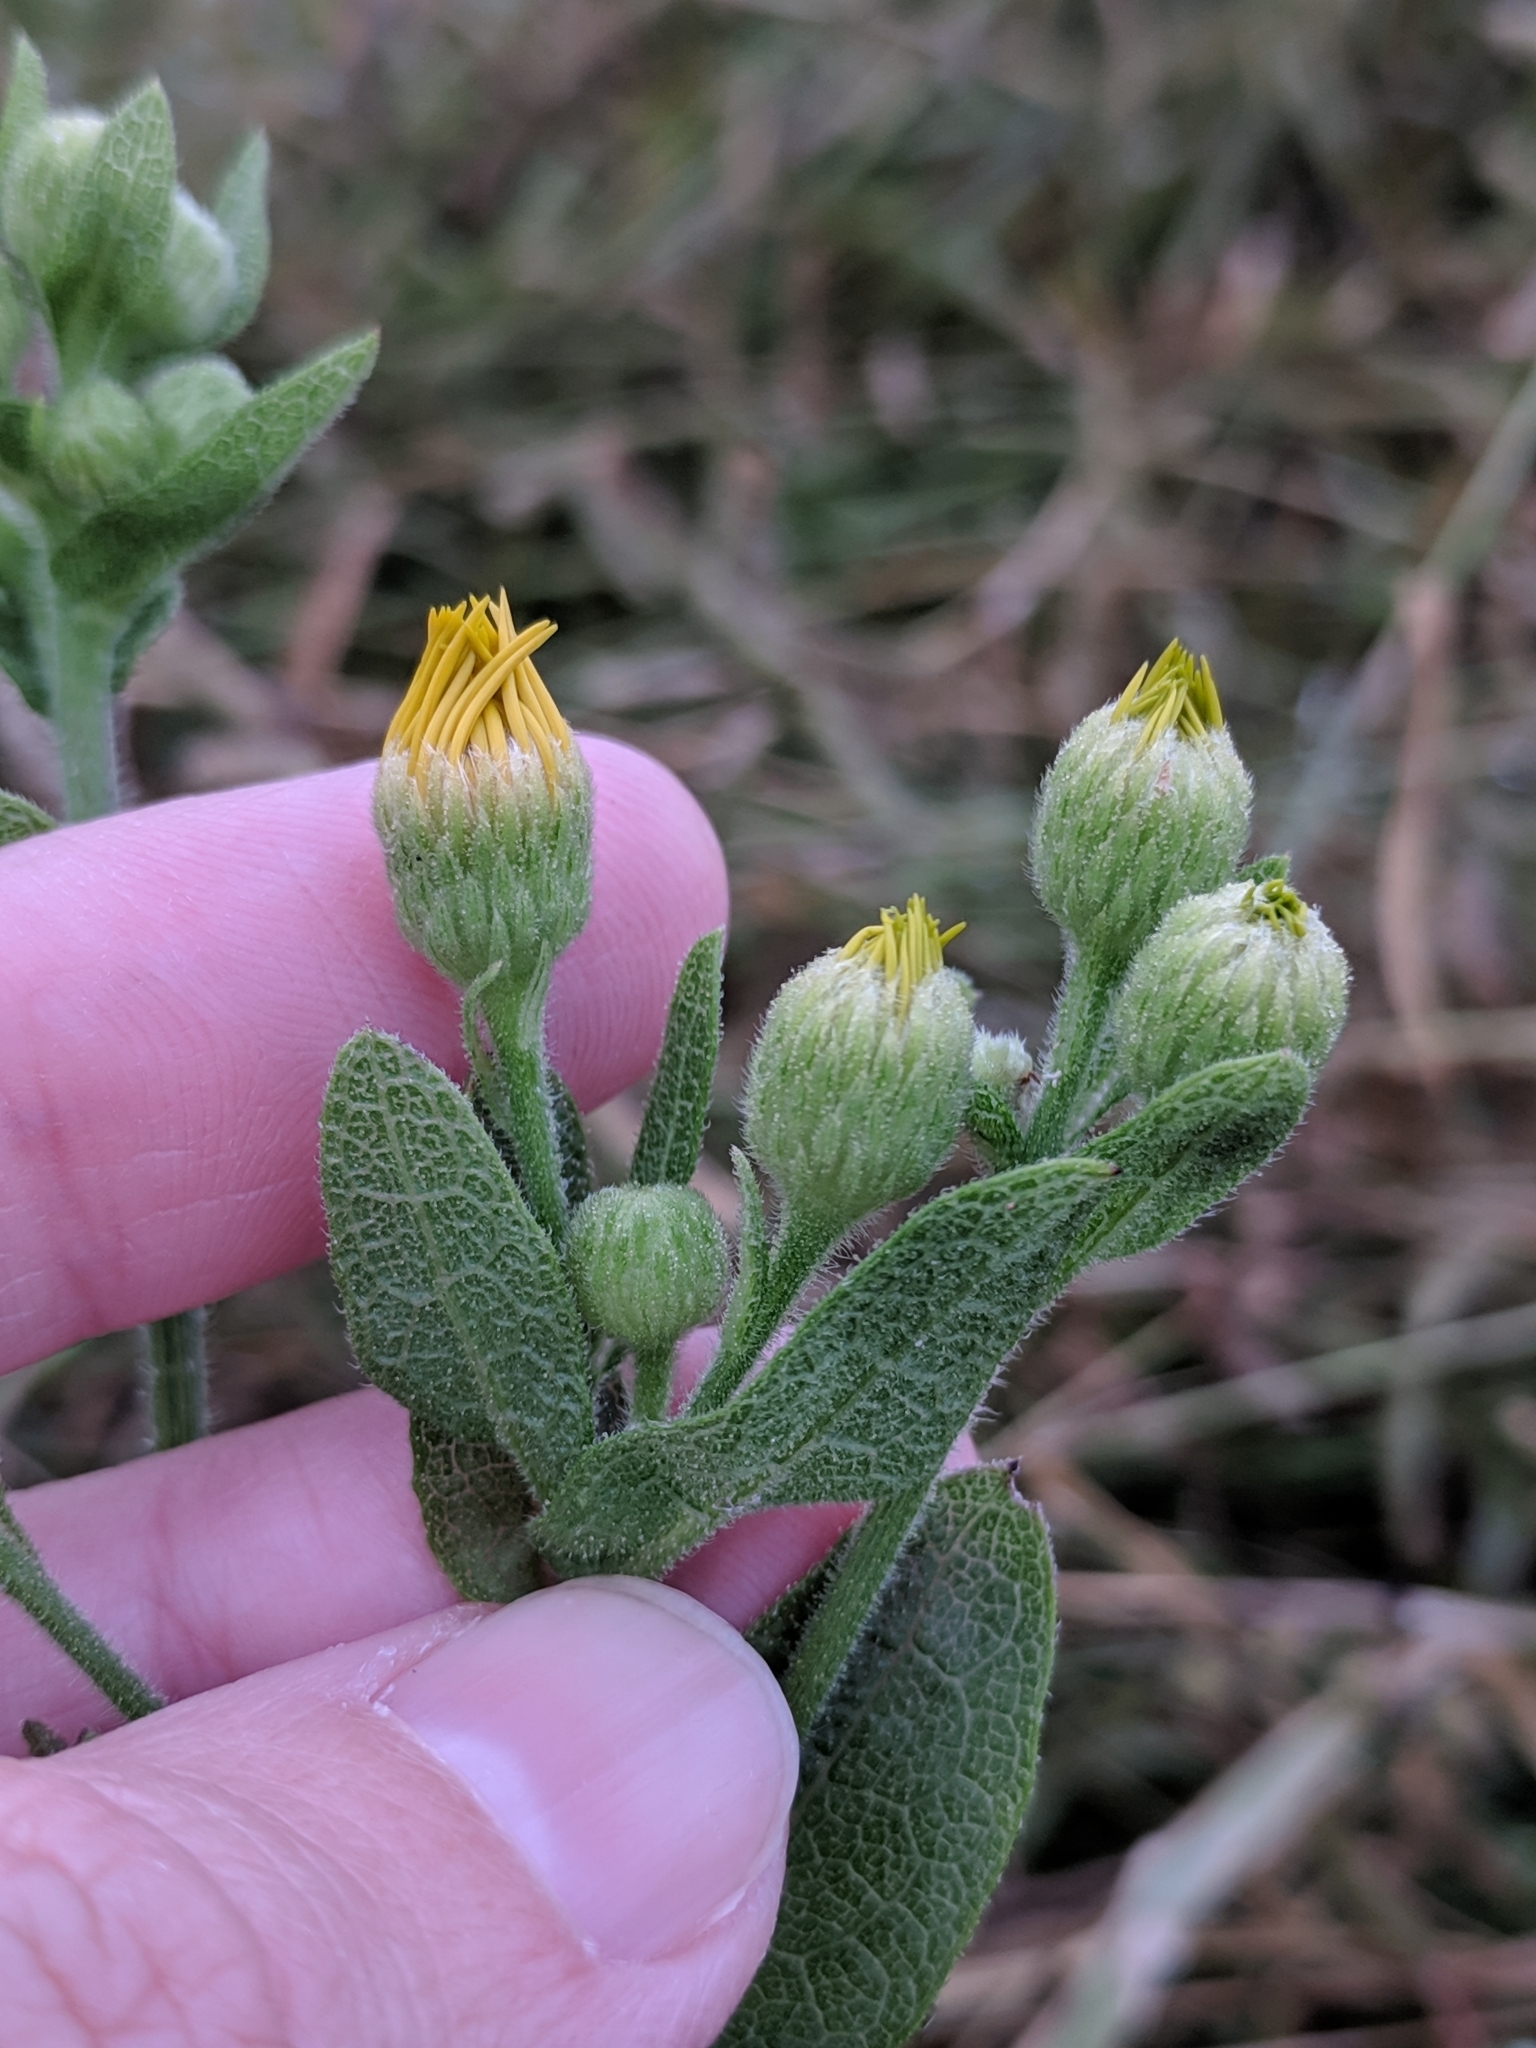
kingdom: Plantae
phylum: Tracheophyta
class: Magnoliopsida
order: Asterales
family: Asteraceae
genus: Heterotheca
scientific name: Heterotheca subaxillaris
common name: Camphorweed
